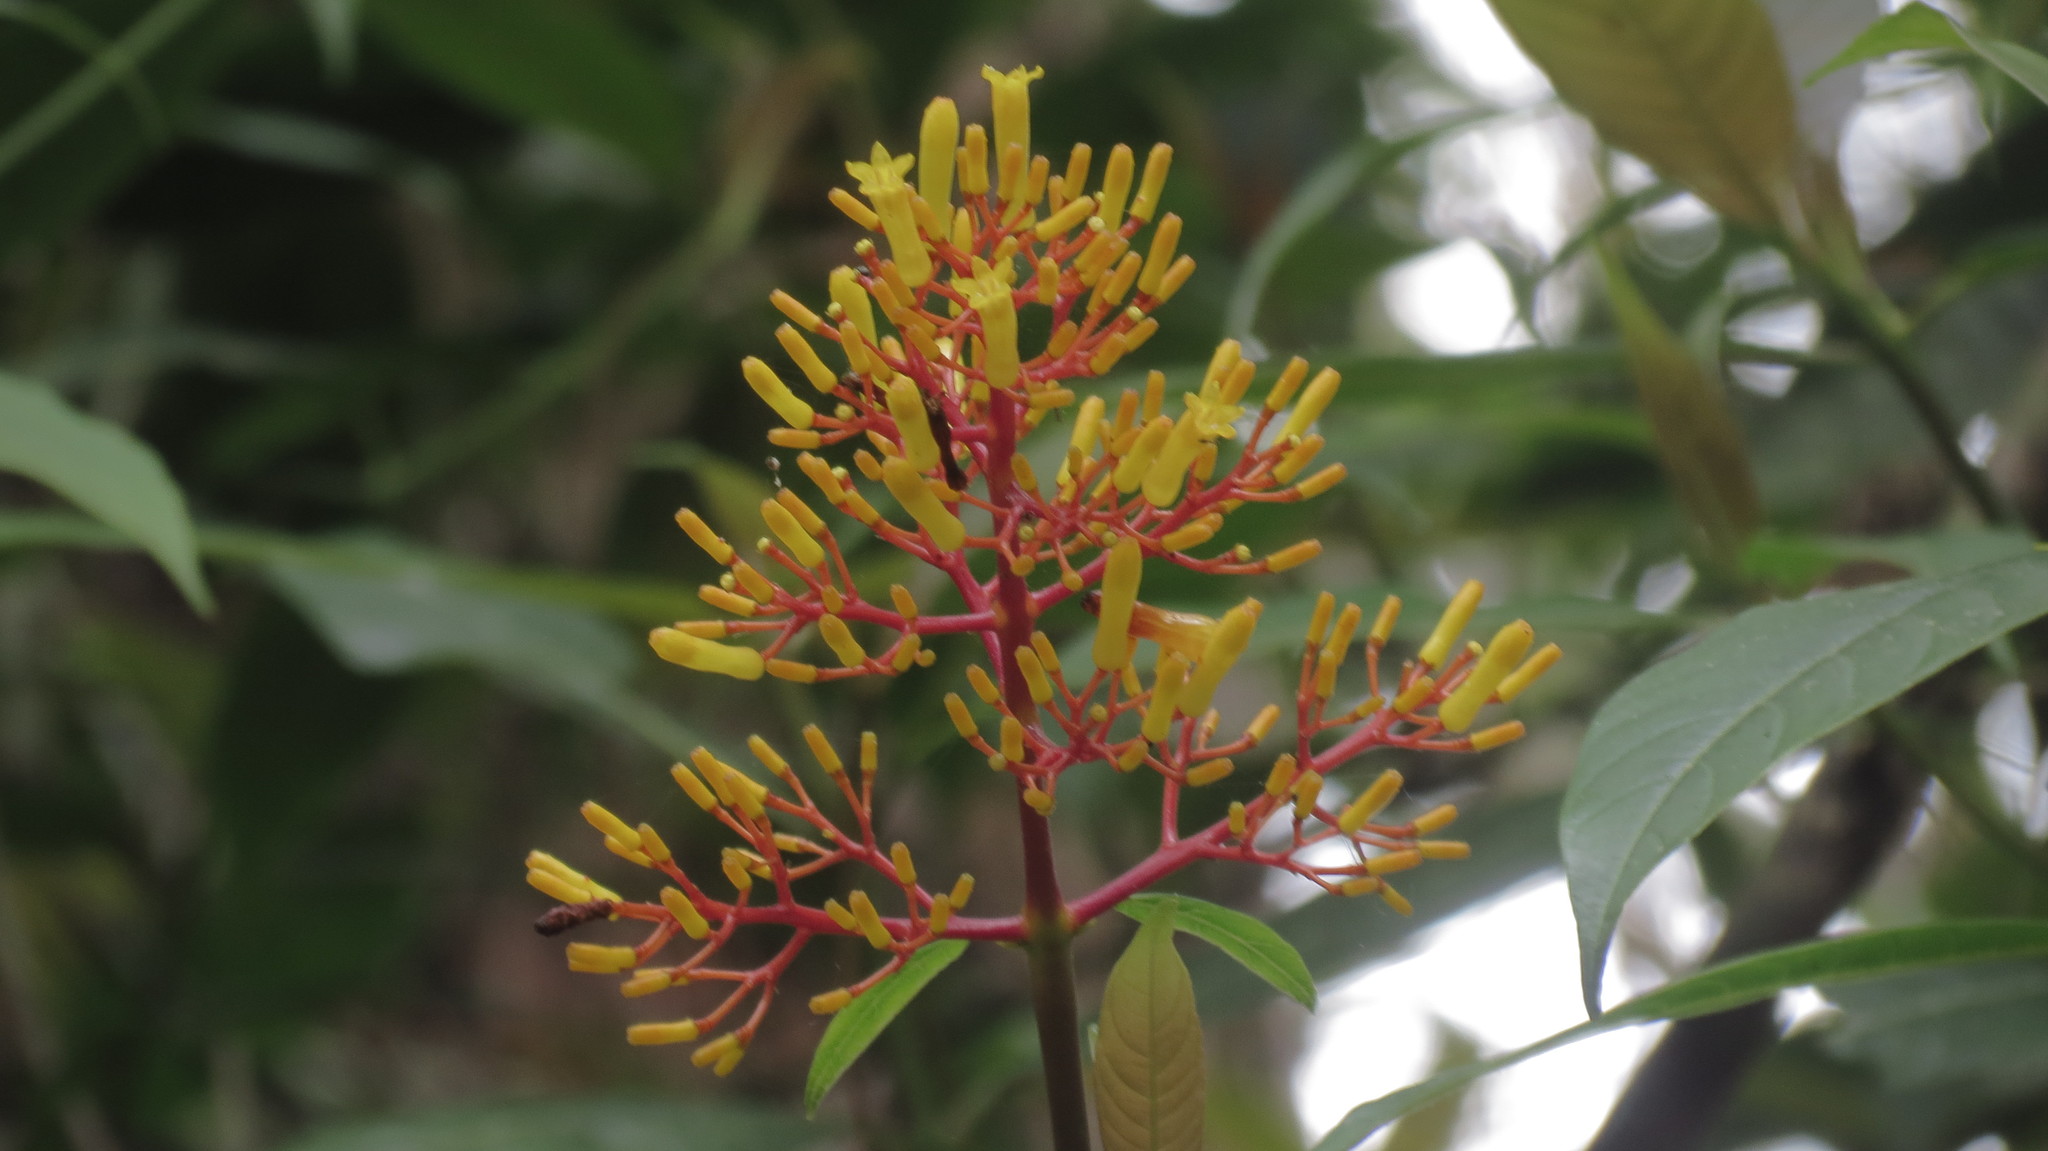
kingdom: Plantae
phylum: Tracheophyta
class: Magnoliopsida
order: Gentianales
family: Rubiaceae
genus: Palicourea
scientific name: Palicourea padifolia
